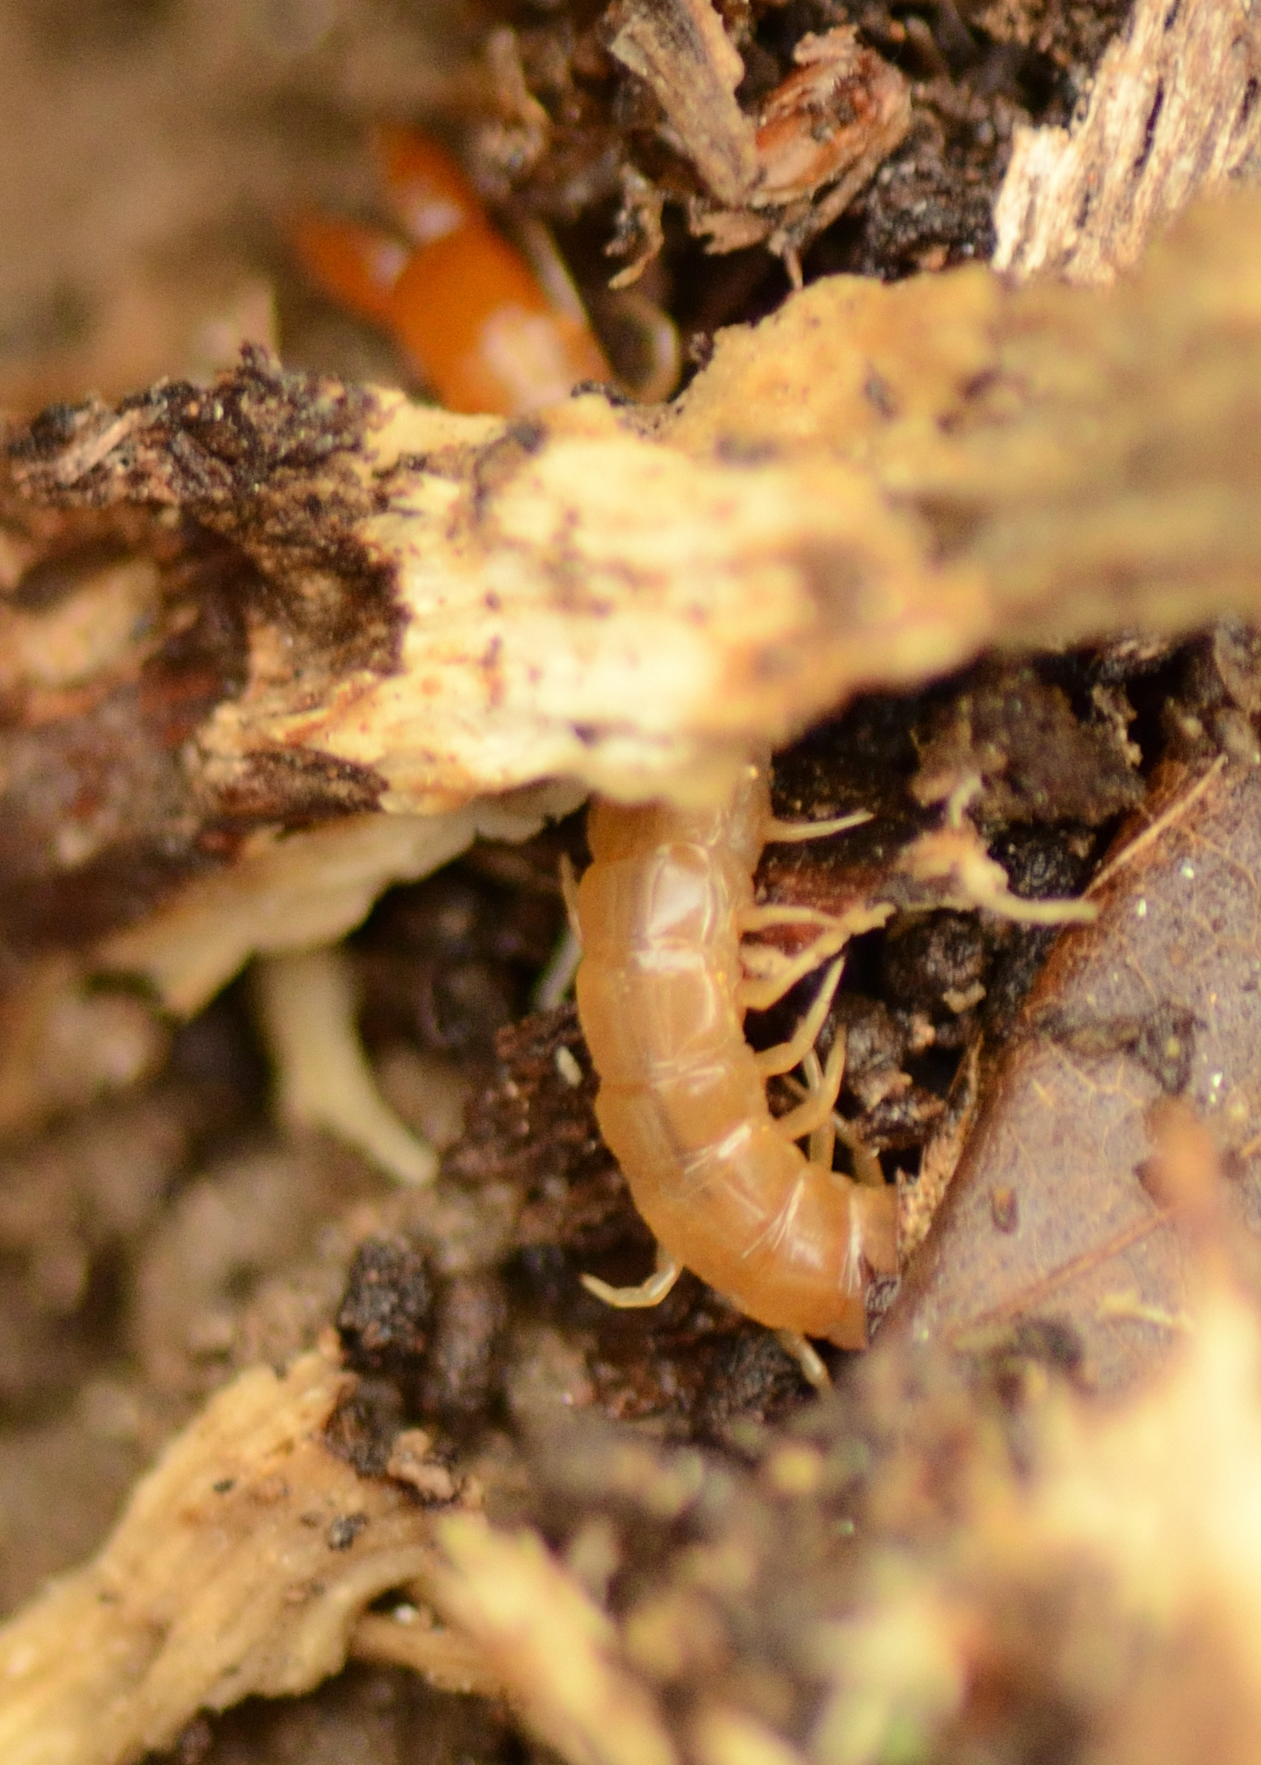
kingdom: Animalia
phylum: Arthropoda
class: Chilopoda
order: Scolopendromorpha
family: Cryptopidae
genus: Theatops
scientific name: Theatops posticus
